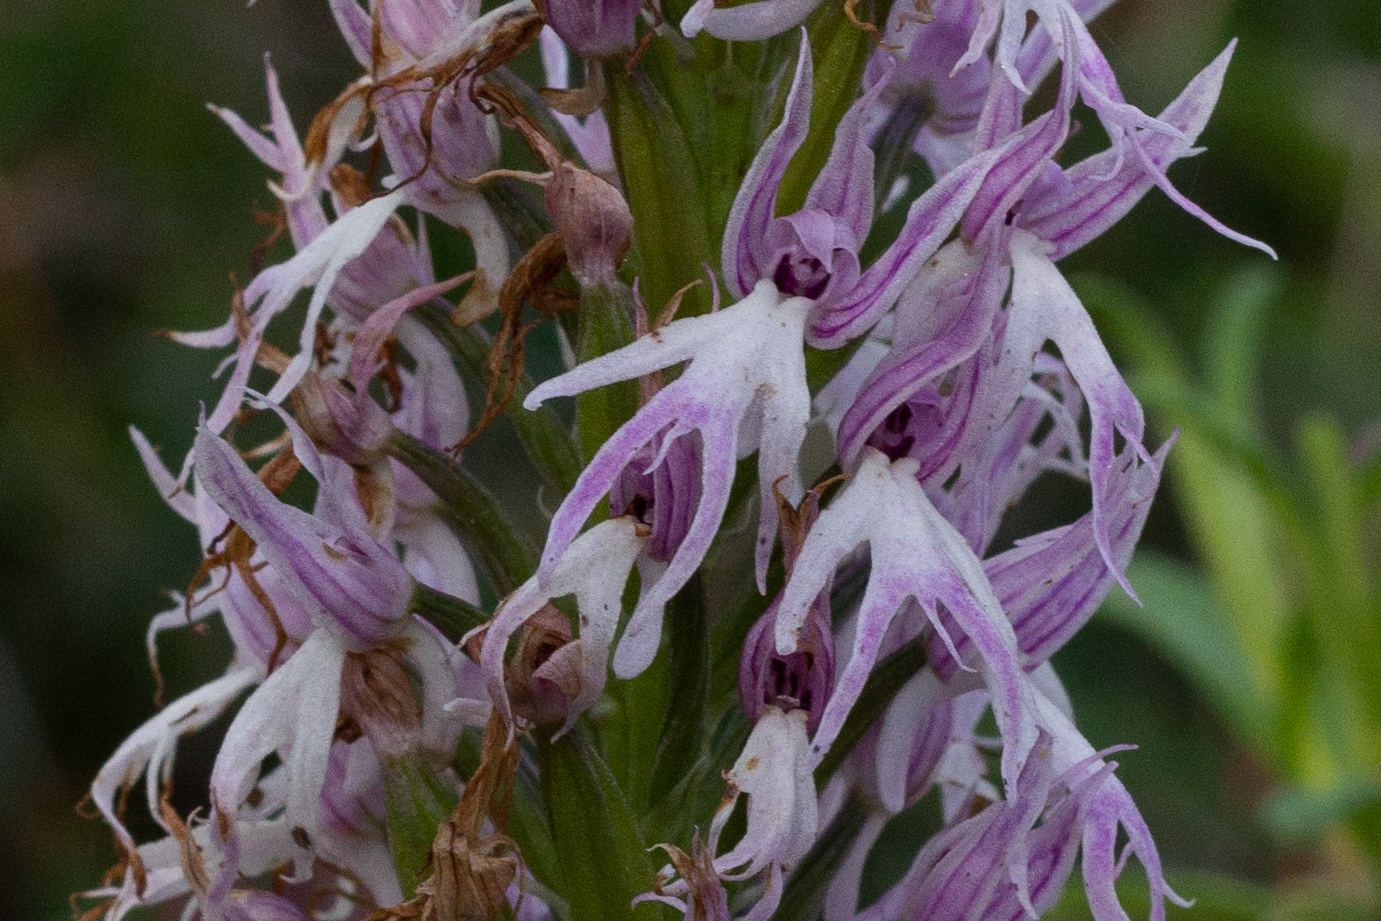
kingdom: Plantae
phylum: Tracheophyta
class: Liliopsida
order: Asparagales
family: Orchidaceae
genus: Orchis
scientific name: Orchis italica
